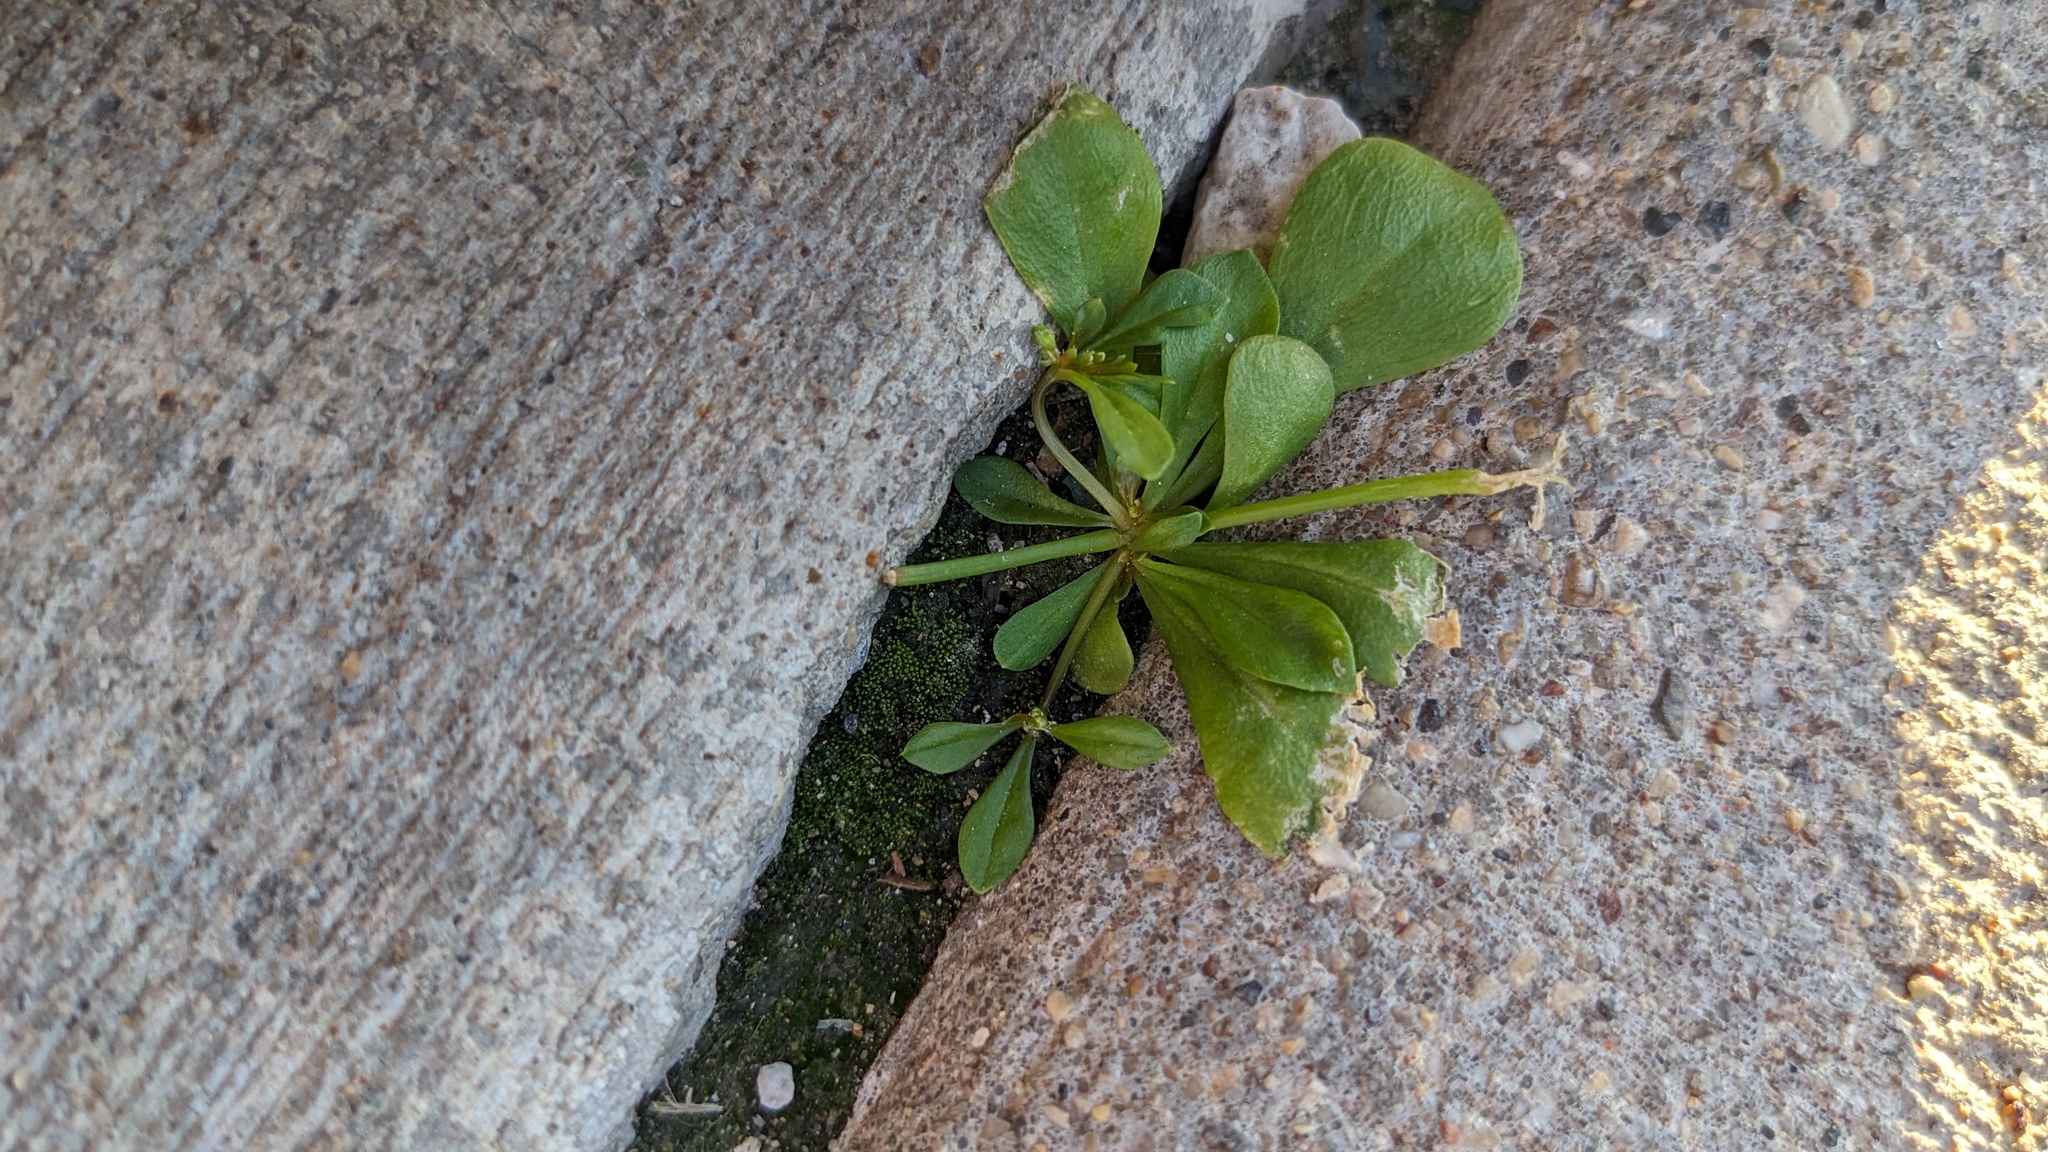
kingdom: Plantae
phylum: Tracheophyta
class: Magnoliopsida
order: Caryophyllales
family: Molluginaceae
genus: Mollugo
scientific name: Mollugo verticillata
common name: Green carpetweed
